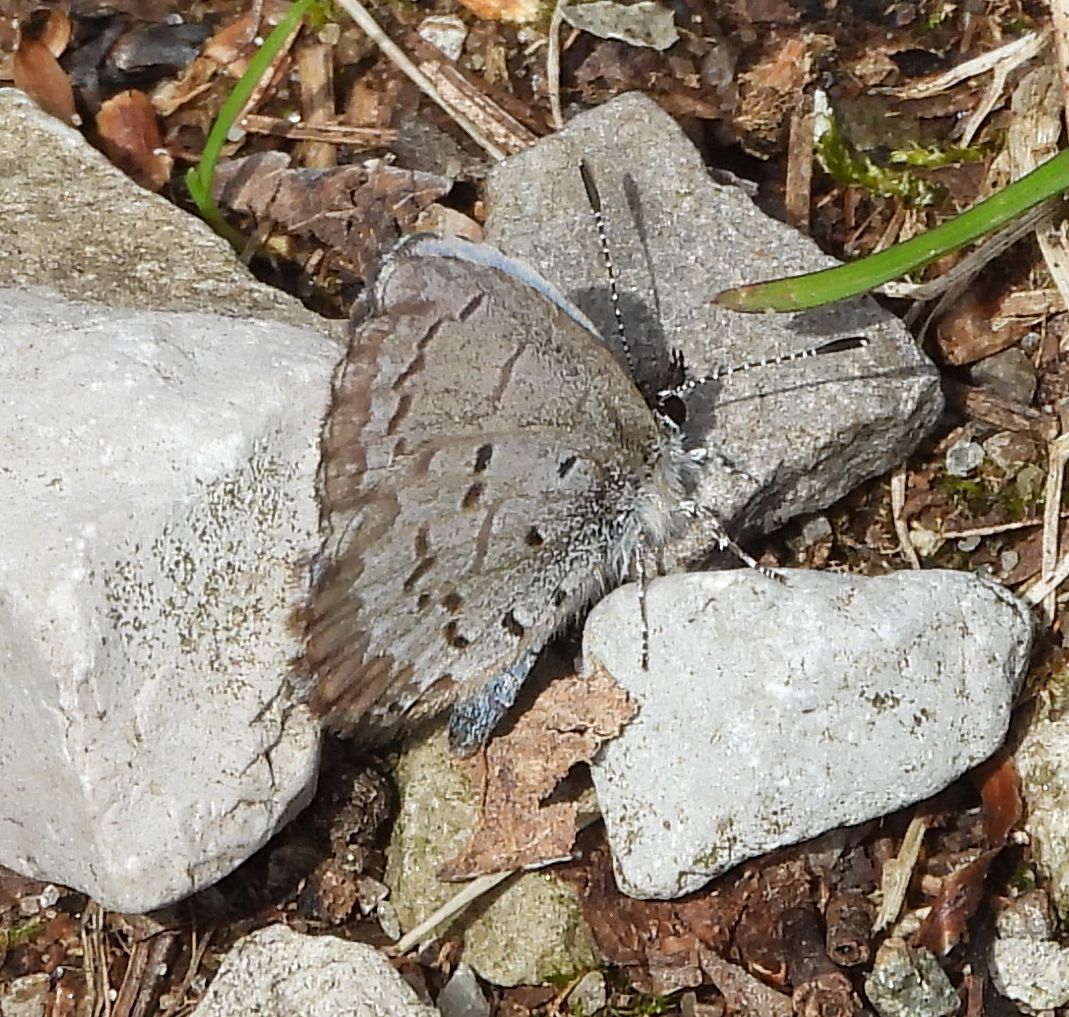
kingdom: Animalia
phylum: Arthropoda
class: Insecta
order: Lepidoptera
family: Lycaenidae
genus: Celastrina
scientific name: Celastrina lucia
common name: Lucia azure
